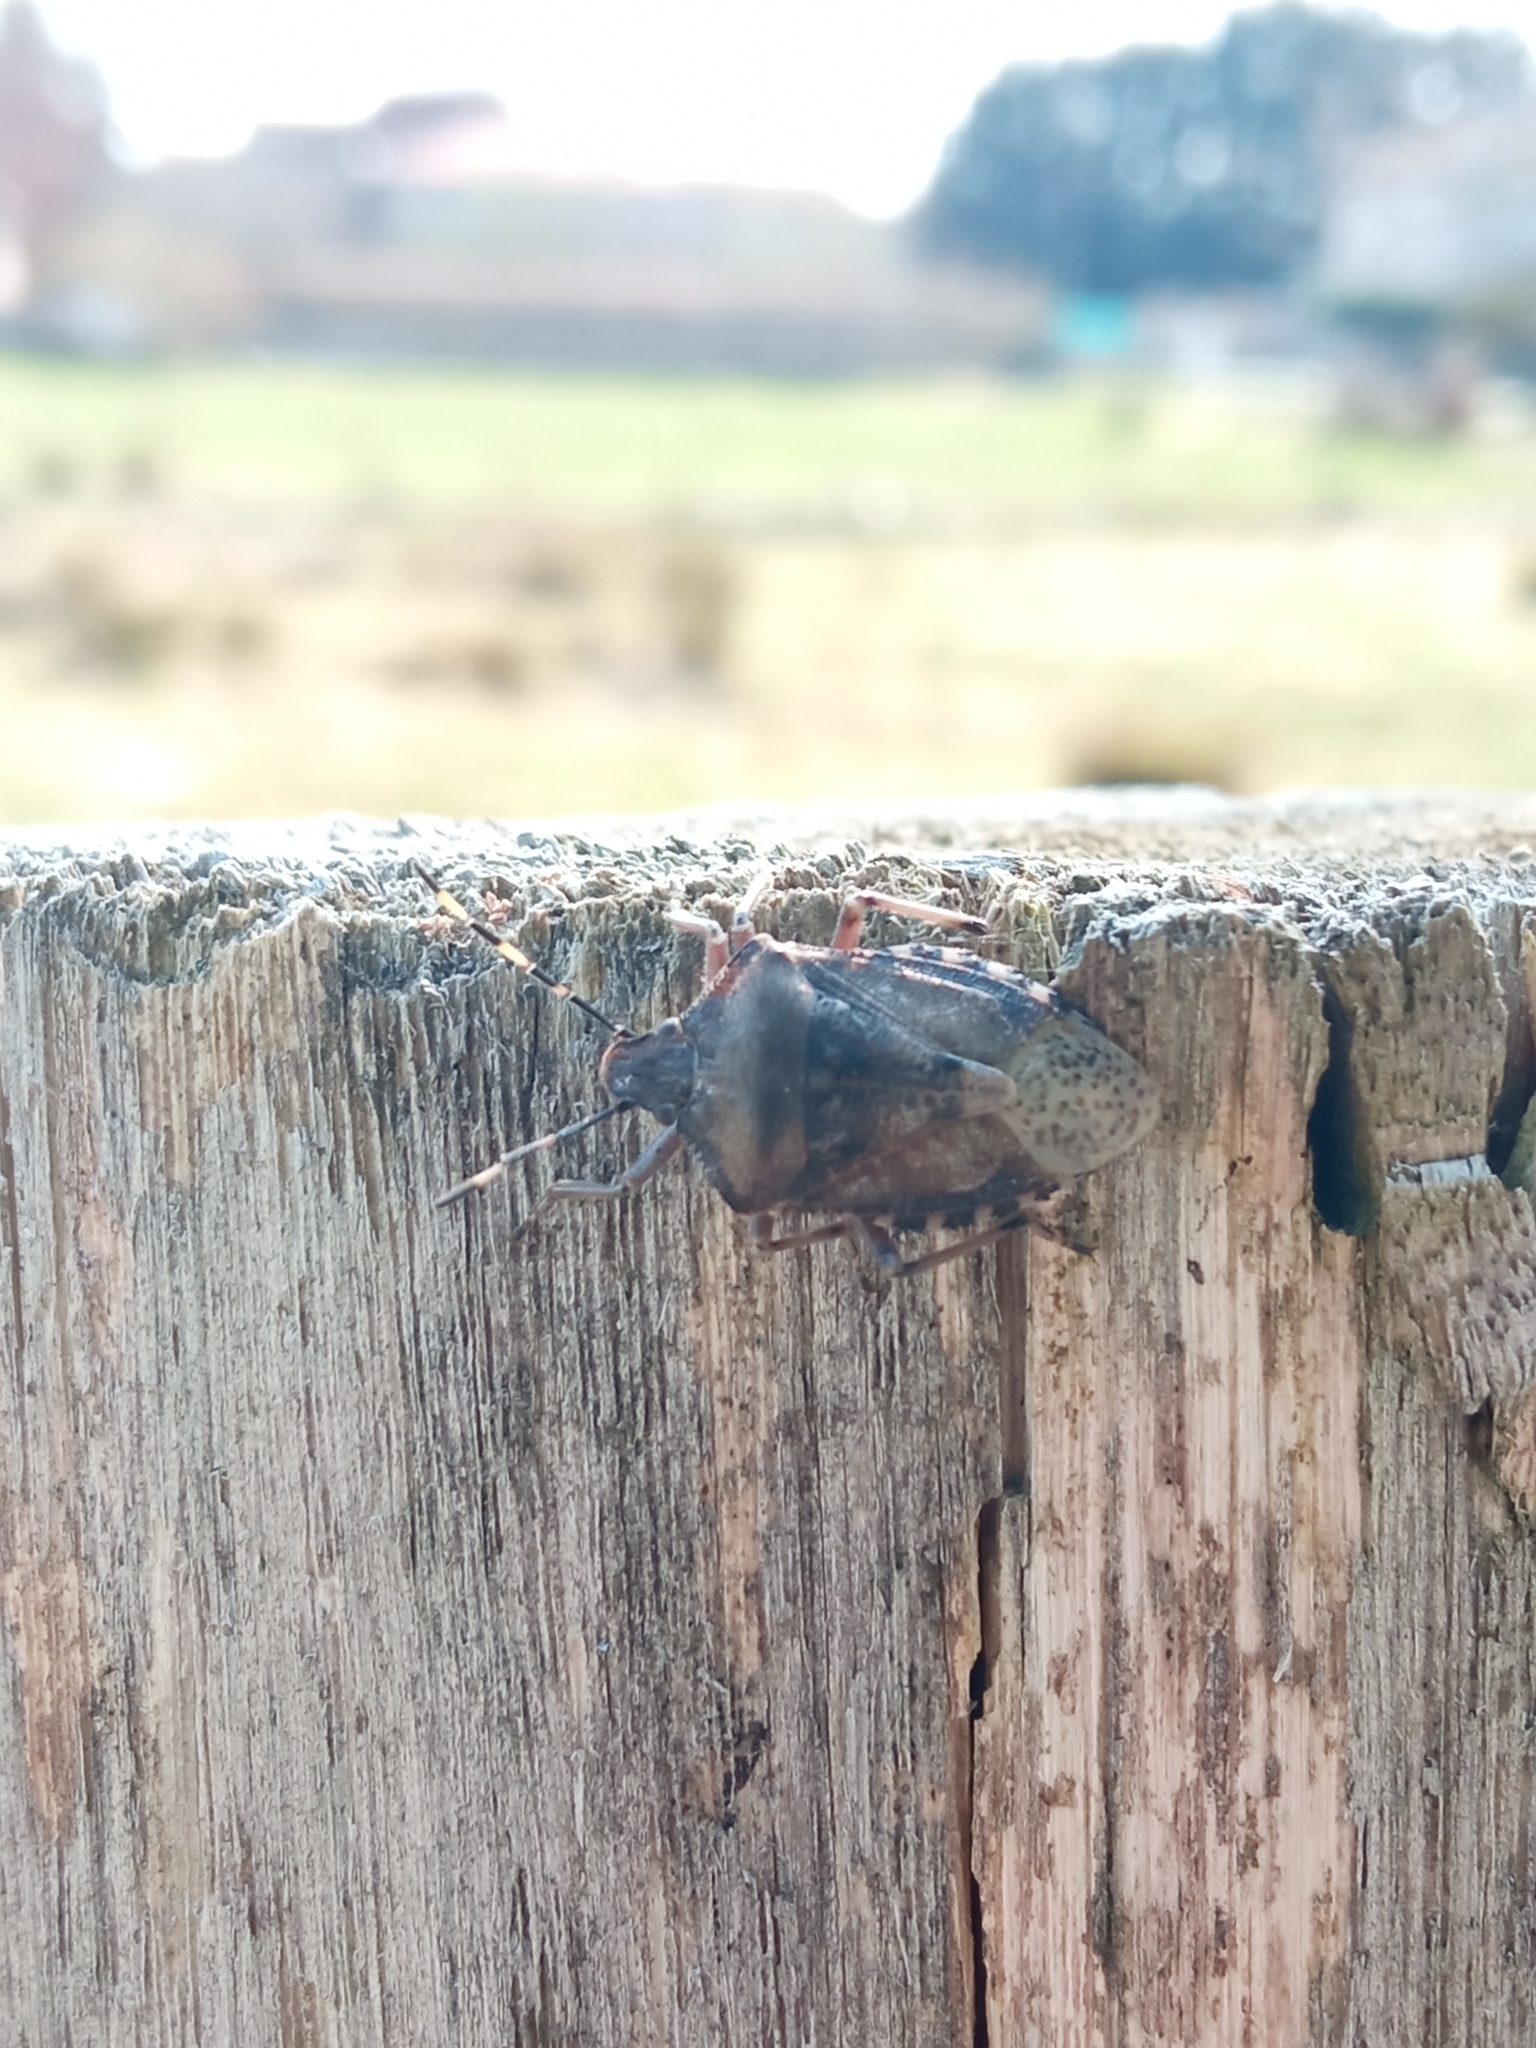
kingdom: Animalia
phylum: Arthropoda
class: Insecta
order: Hemiptera
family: Pentatomidae
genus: Rhaphigaster
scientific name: Rhaphigaster nebulosa
